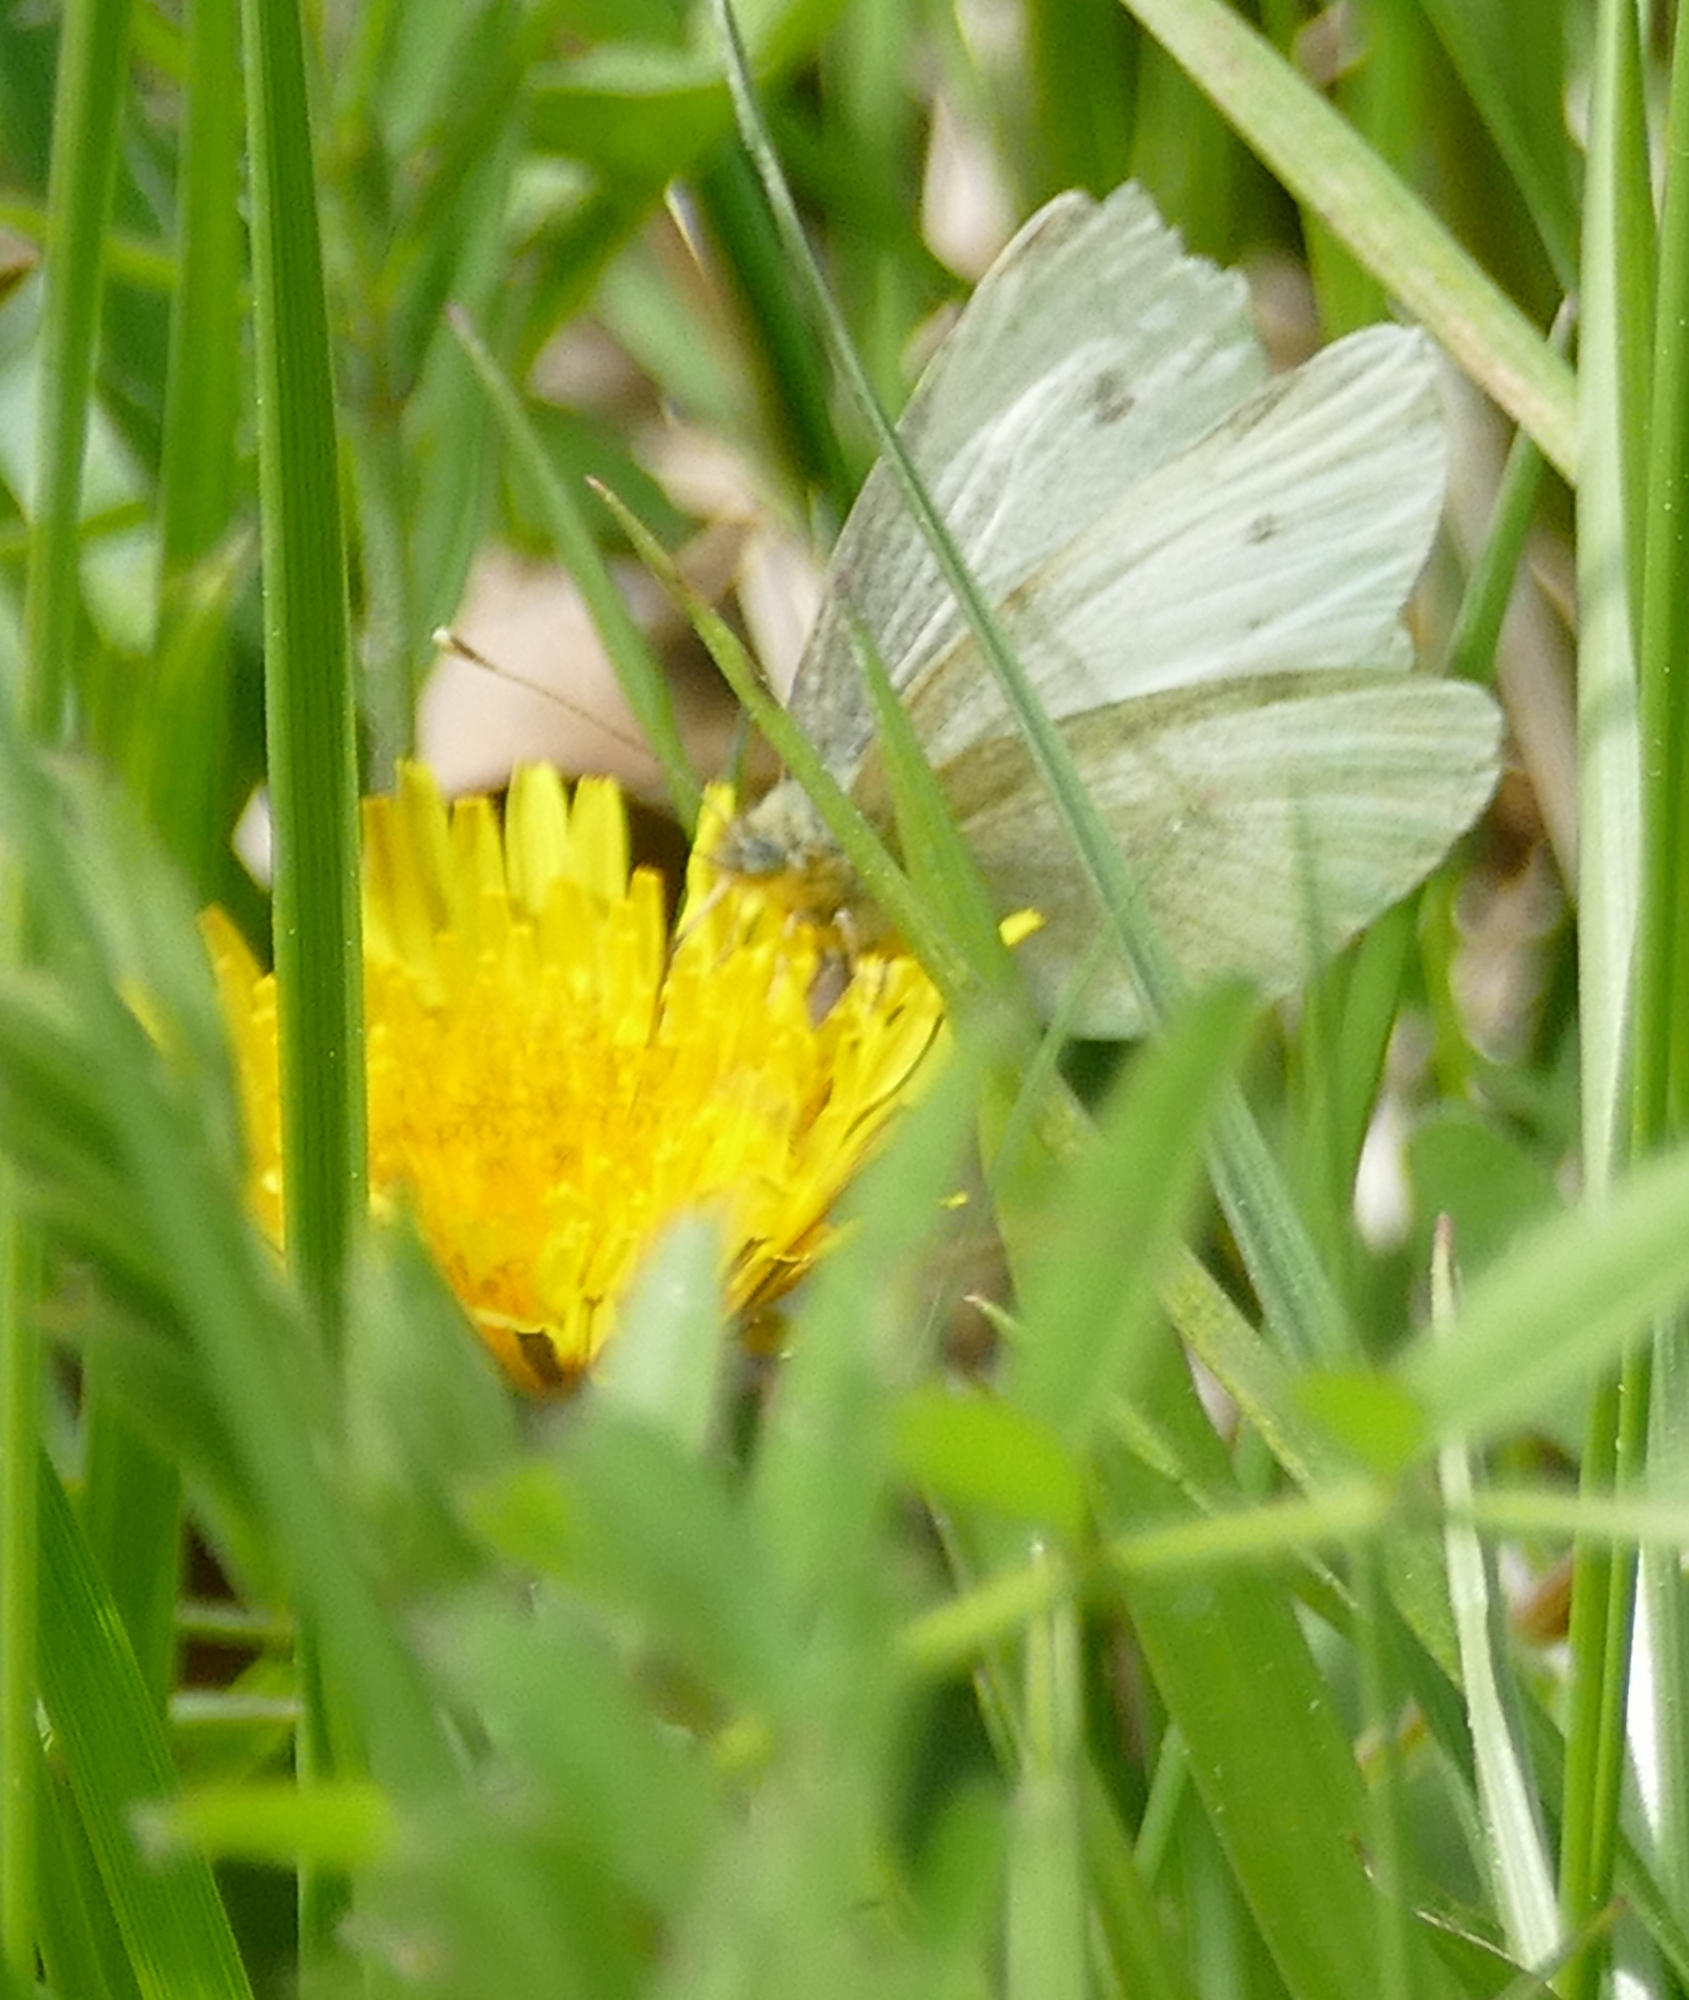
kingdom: Animalia
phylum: Arthropoda
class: Insecta
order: Lepidoptera
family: Pieridae
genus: Pieris
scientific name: Pieris rapae
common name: Small white
